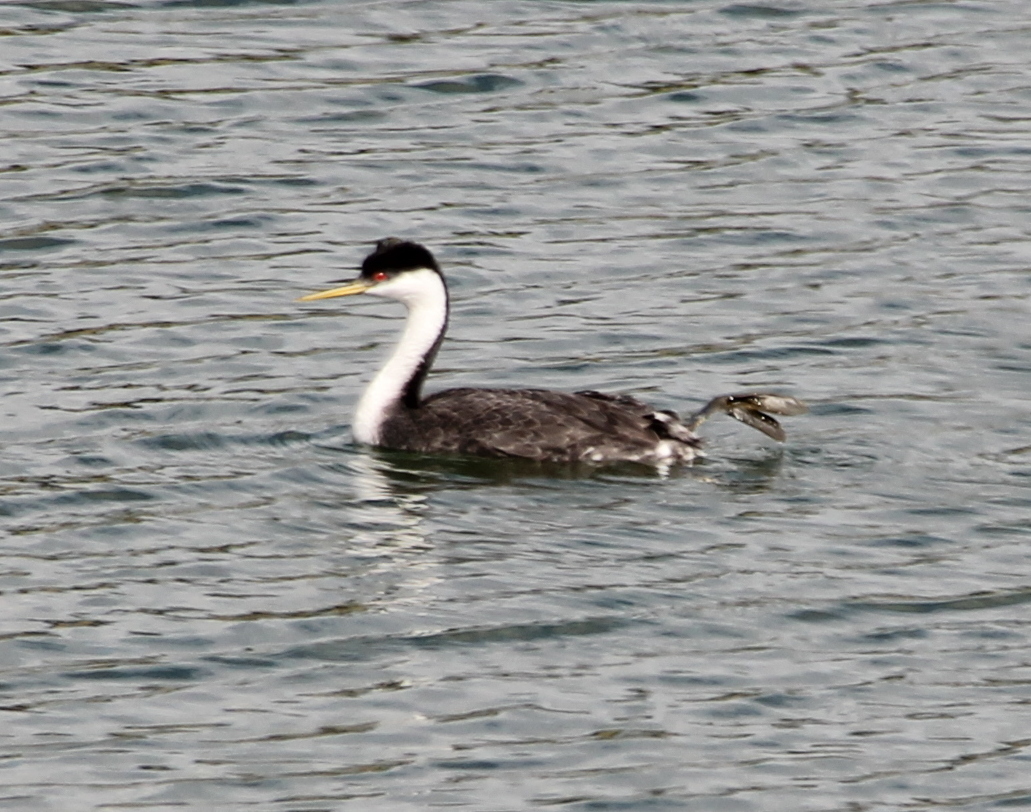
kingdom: Animalia
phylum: Chordata
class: Aves
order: Podicipediformes
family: Podicipedidae
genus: Aechmophorus
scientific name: Aechmophorus occidentalis
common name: Western grebe
